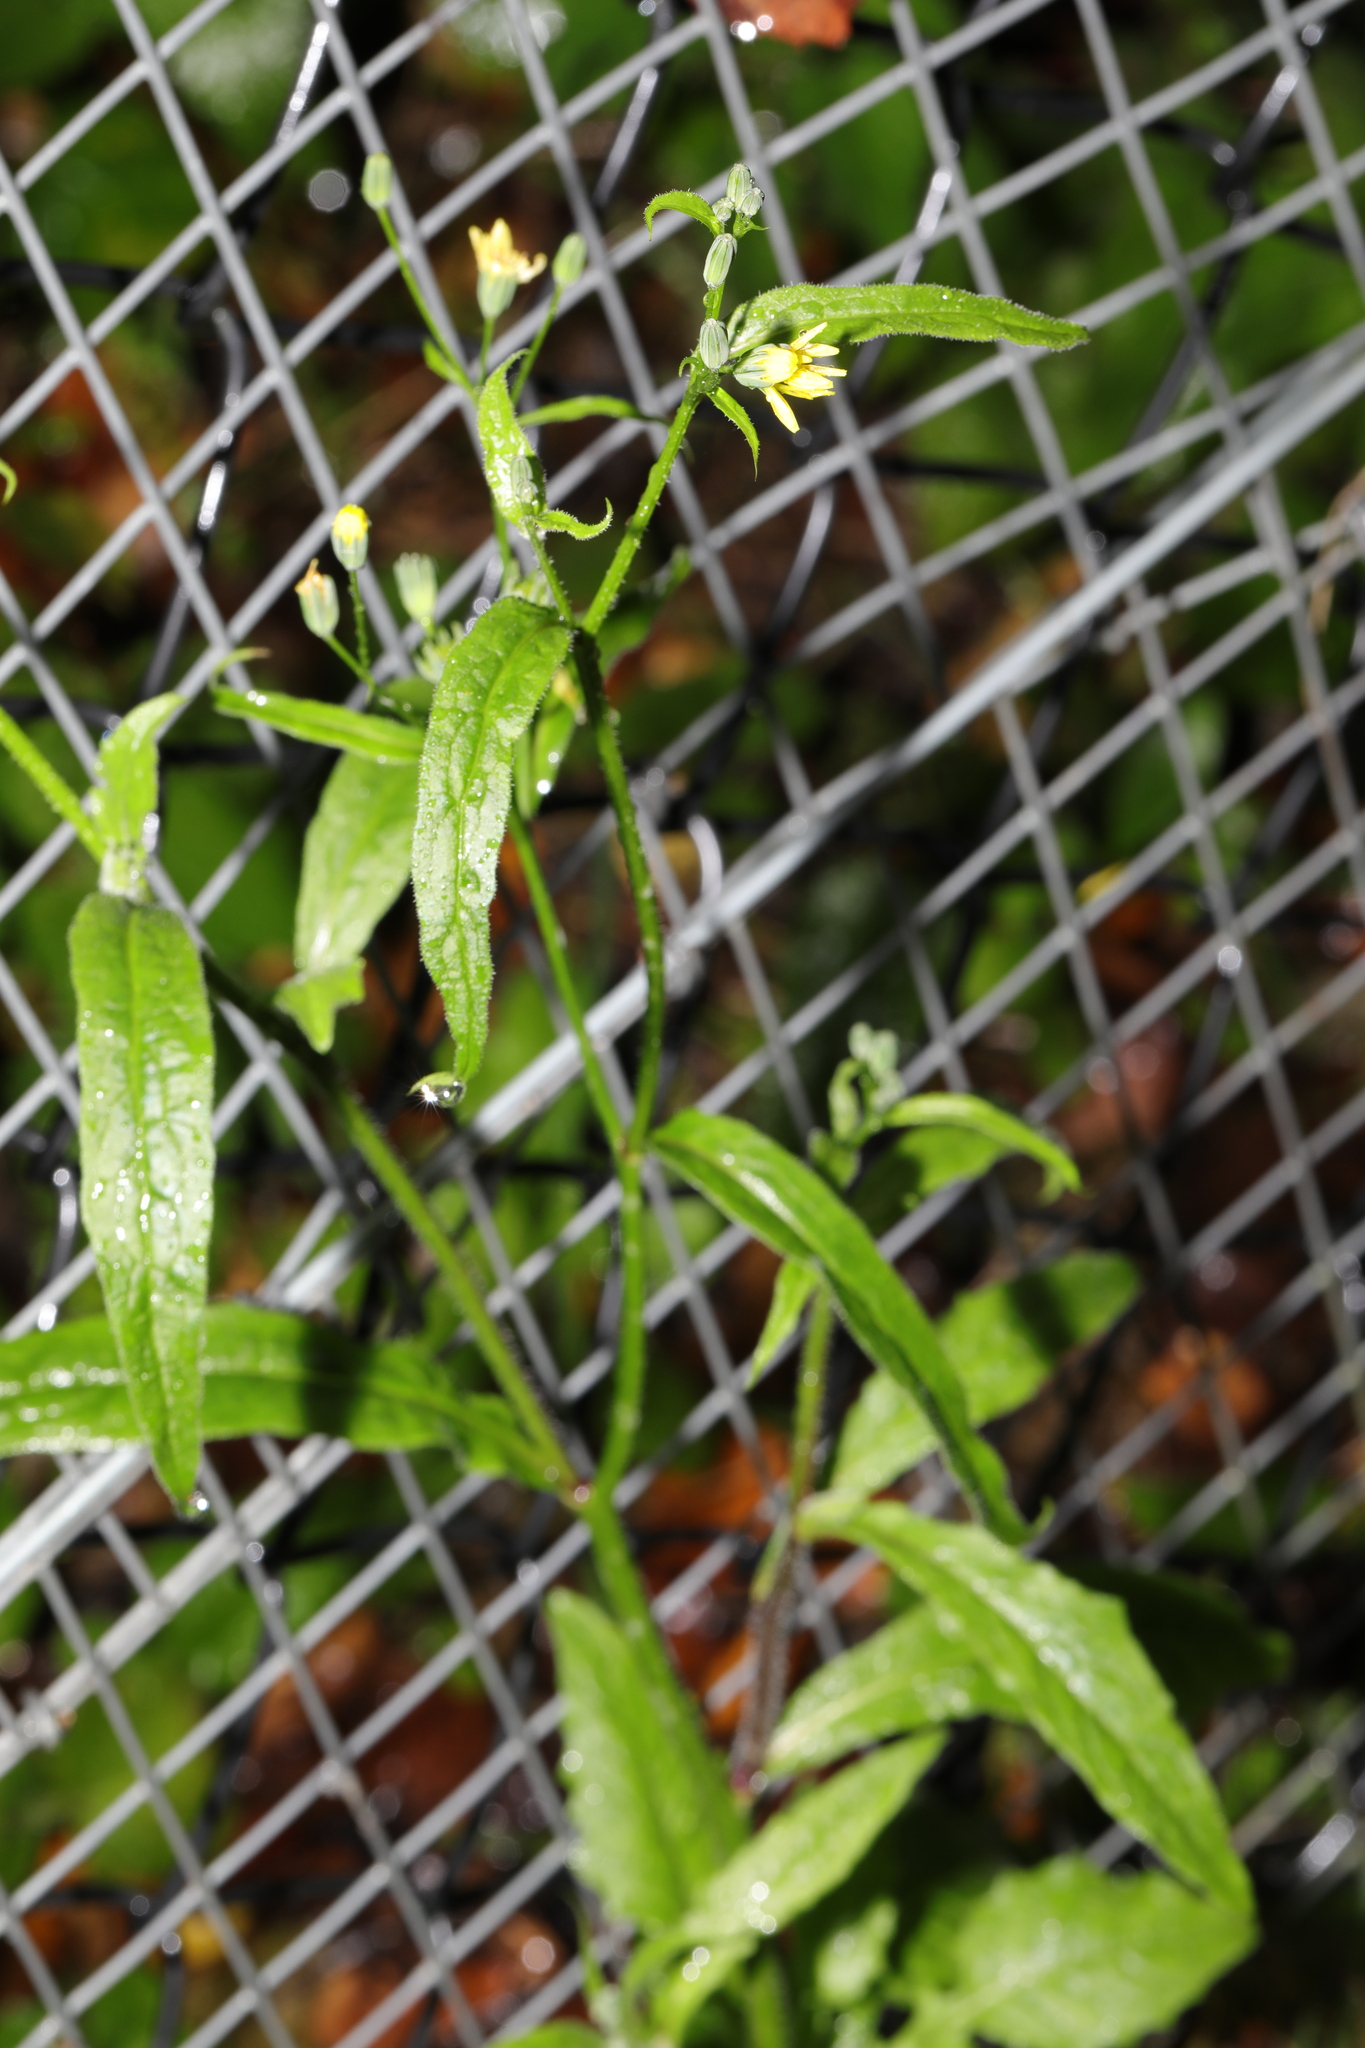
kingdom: Plantae
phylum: Tracheophyta
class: Magnoliopsida
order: Asterales
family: Asteraceae
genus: Lapsana
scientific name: Lapsana communis
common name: Nipplewort
